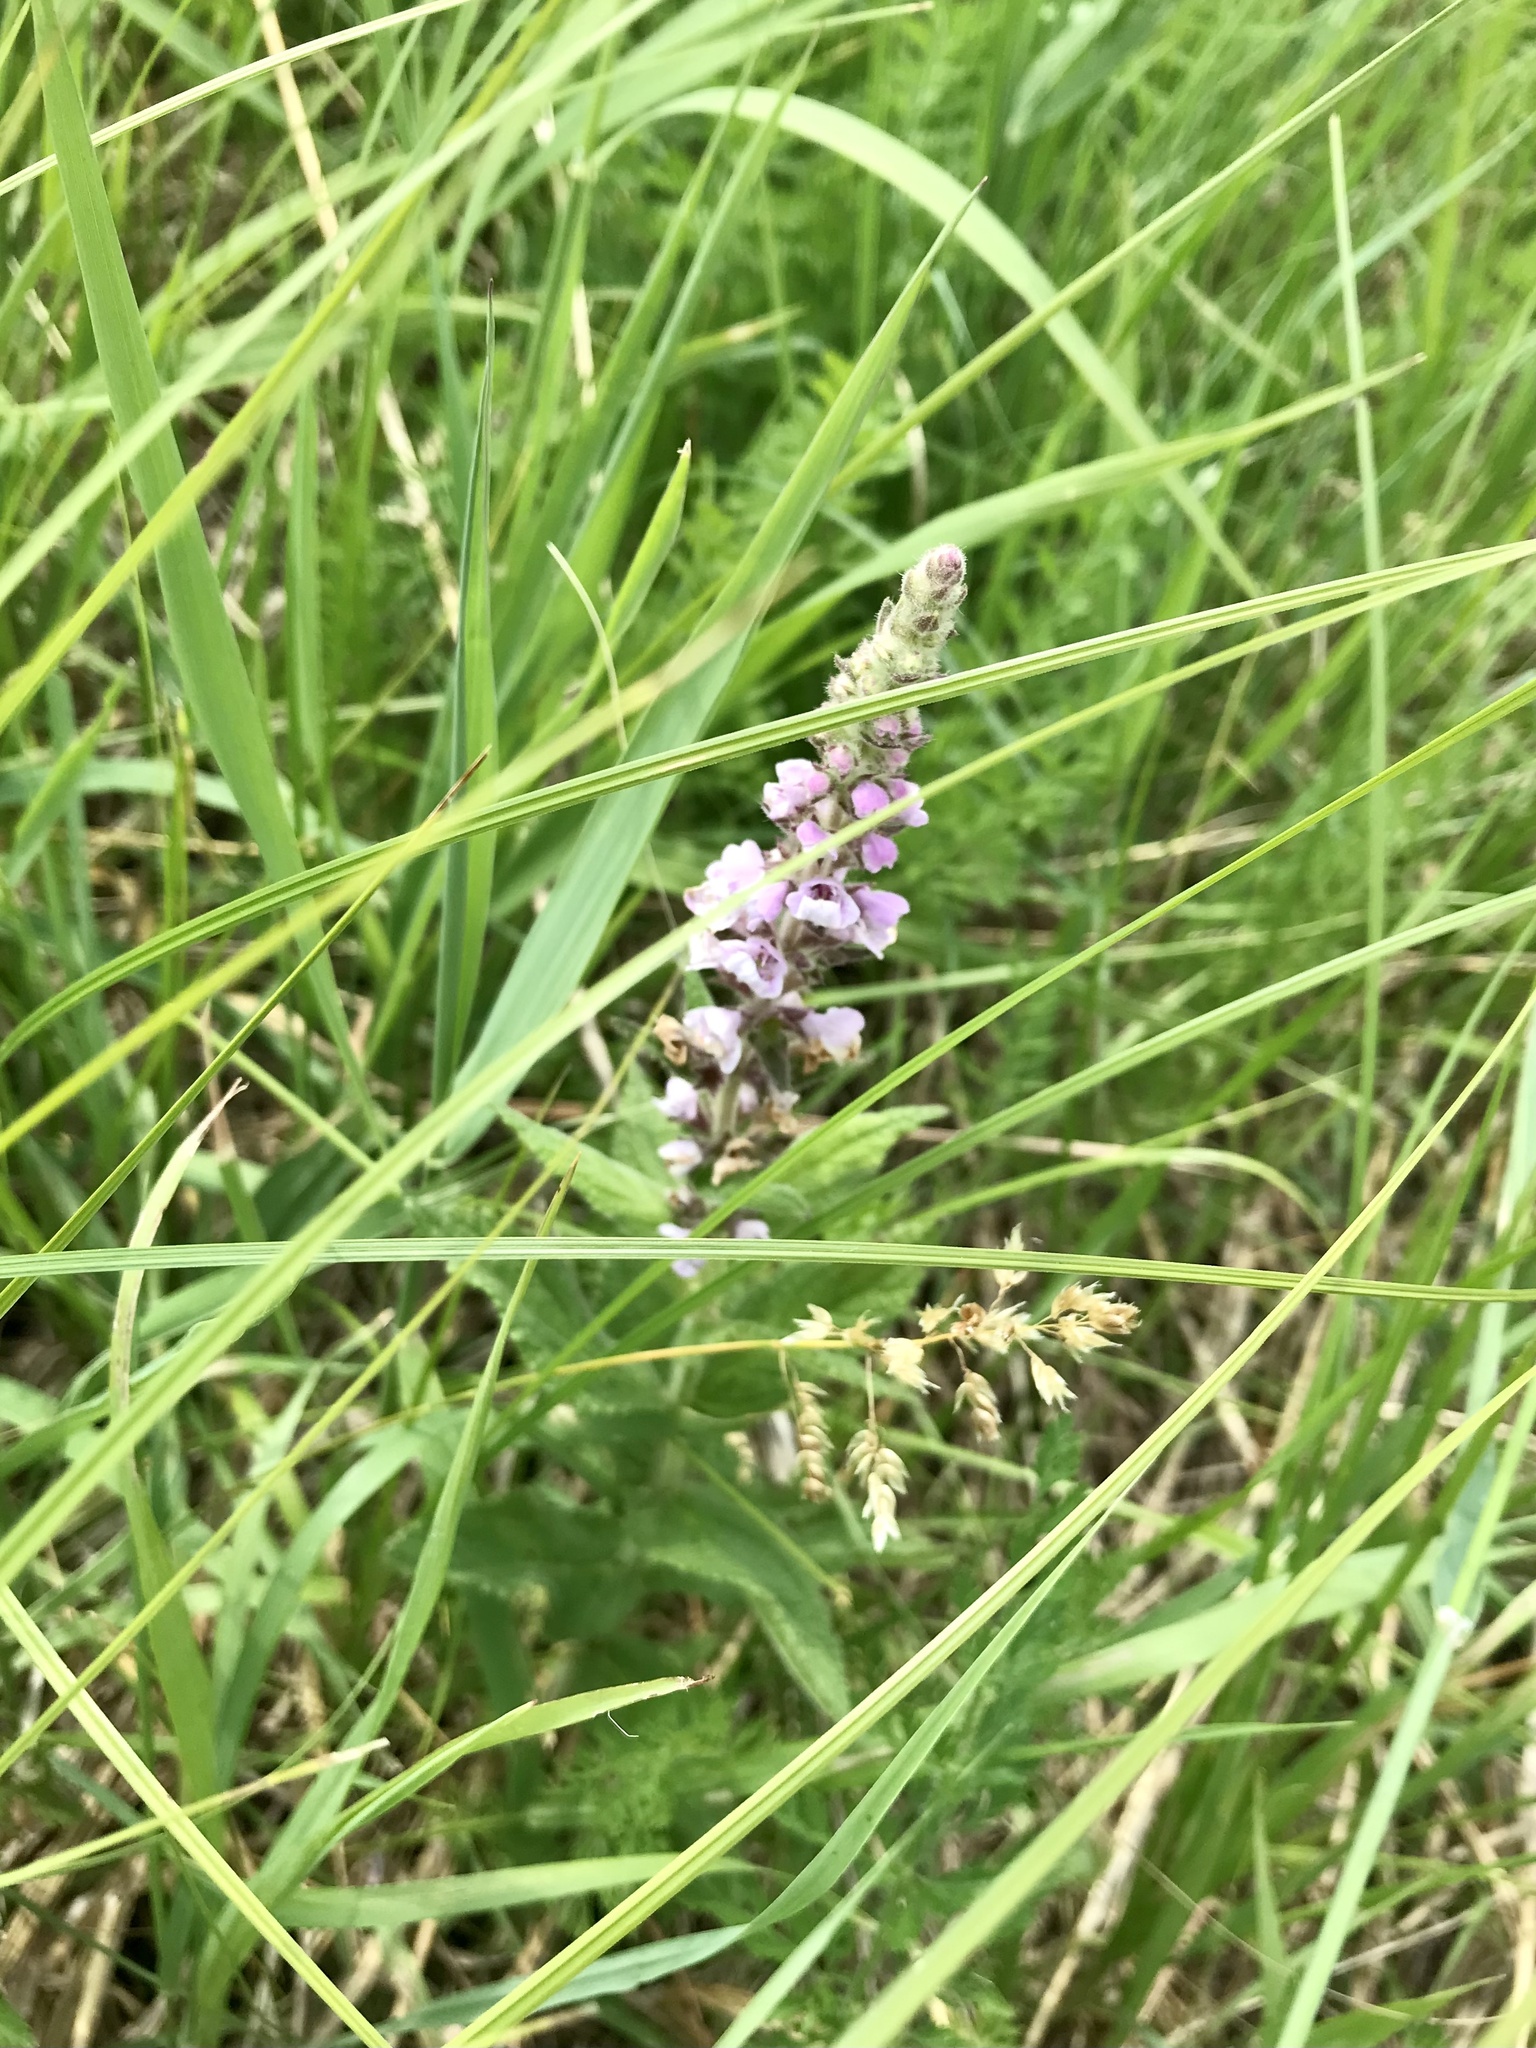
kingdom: Plantae
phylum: Tracheophyta
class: Magnoliopsida
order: Lamiales
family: Lamiaceae
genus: Teucrium
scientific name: Teucrium canadense
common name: American germander
